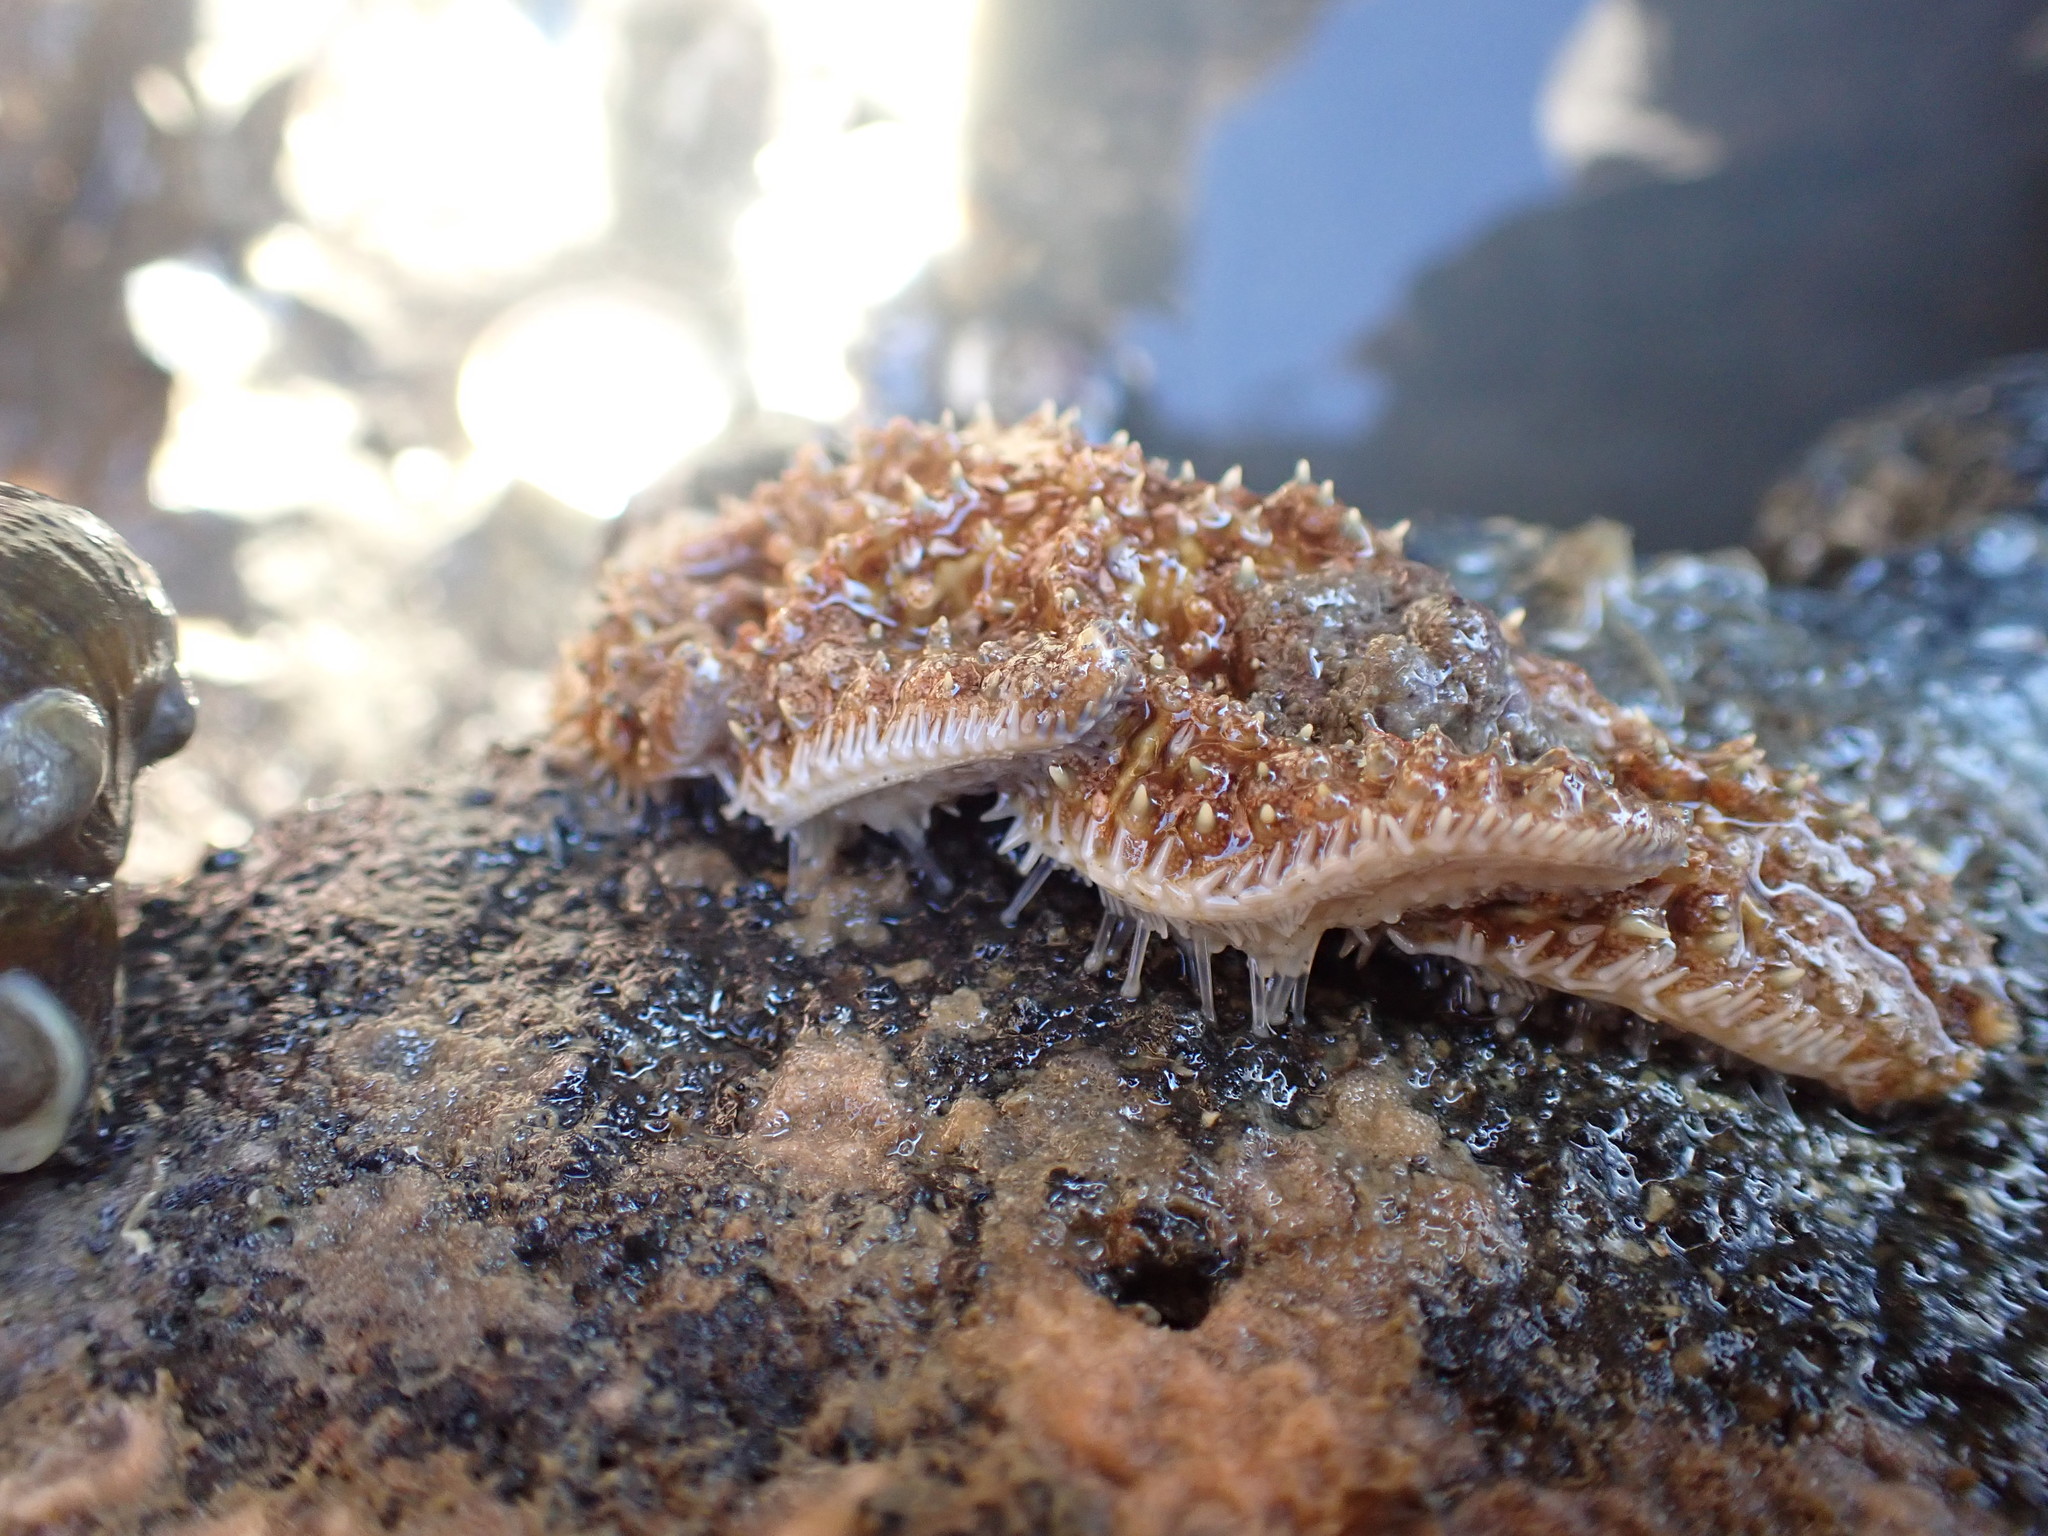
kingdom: Animalia
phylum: Echinodermata
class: Asteroidea
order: Forcipulatida
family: Asteriidae
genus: Coscinasterias
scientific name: Coscinasterias muricata
